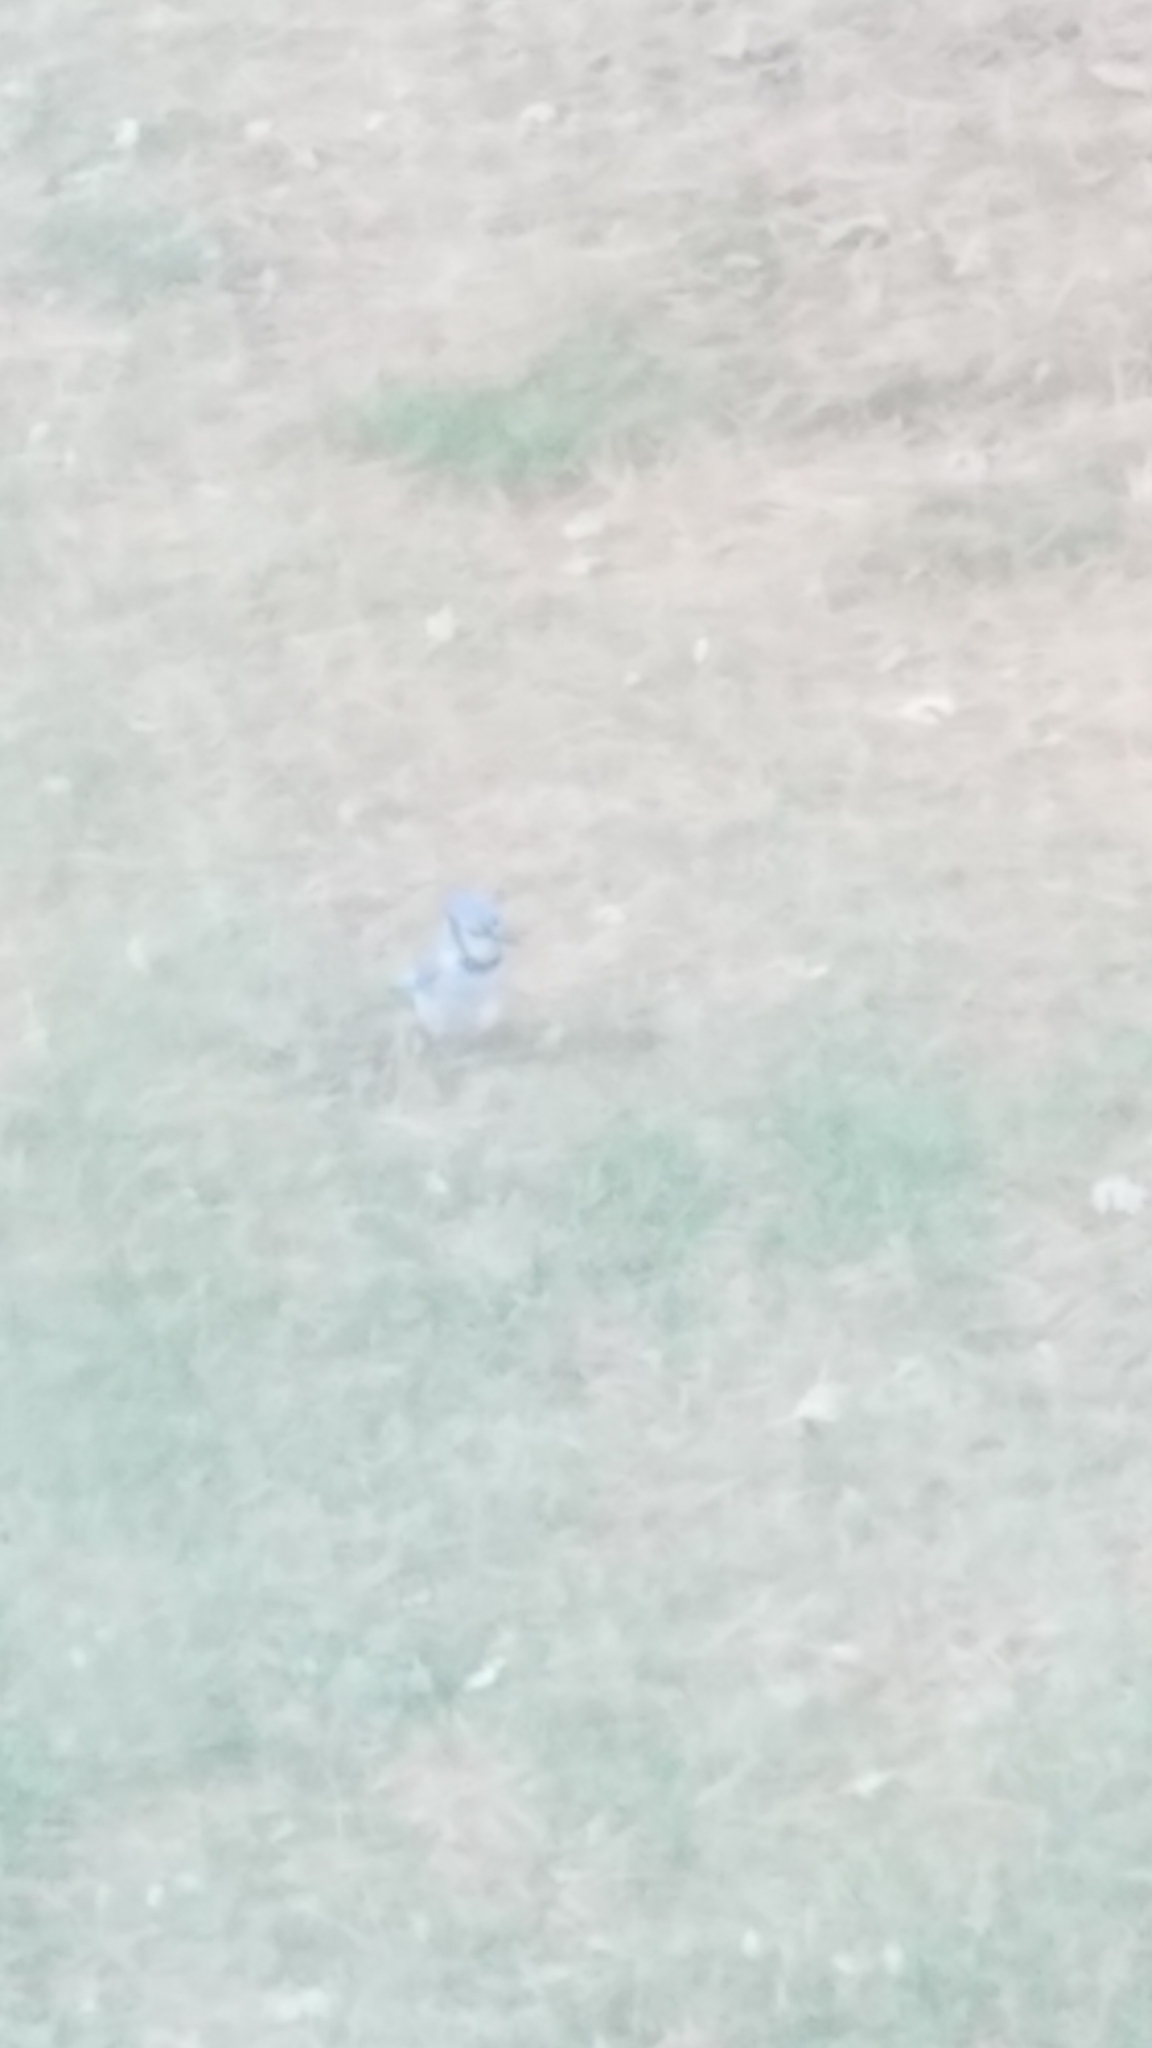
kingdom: Animalia
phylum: Chordata
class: Aves
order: Passeriformes
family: Corvidae
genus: Cyanocitta
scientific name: Cyanocitta cristata
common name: Blue jay
